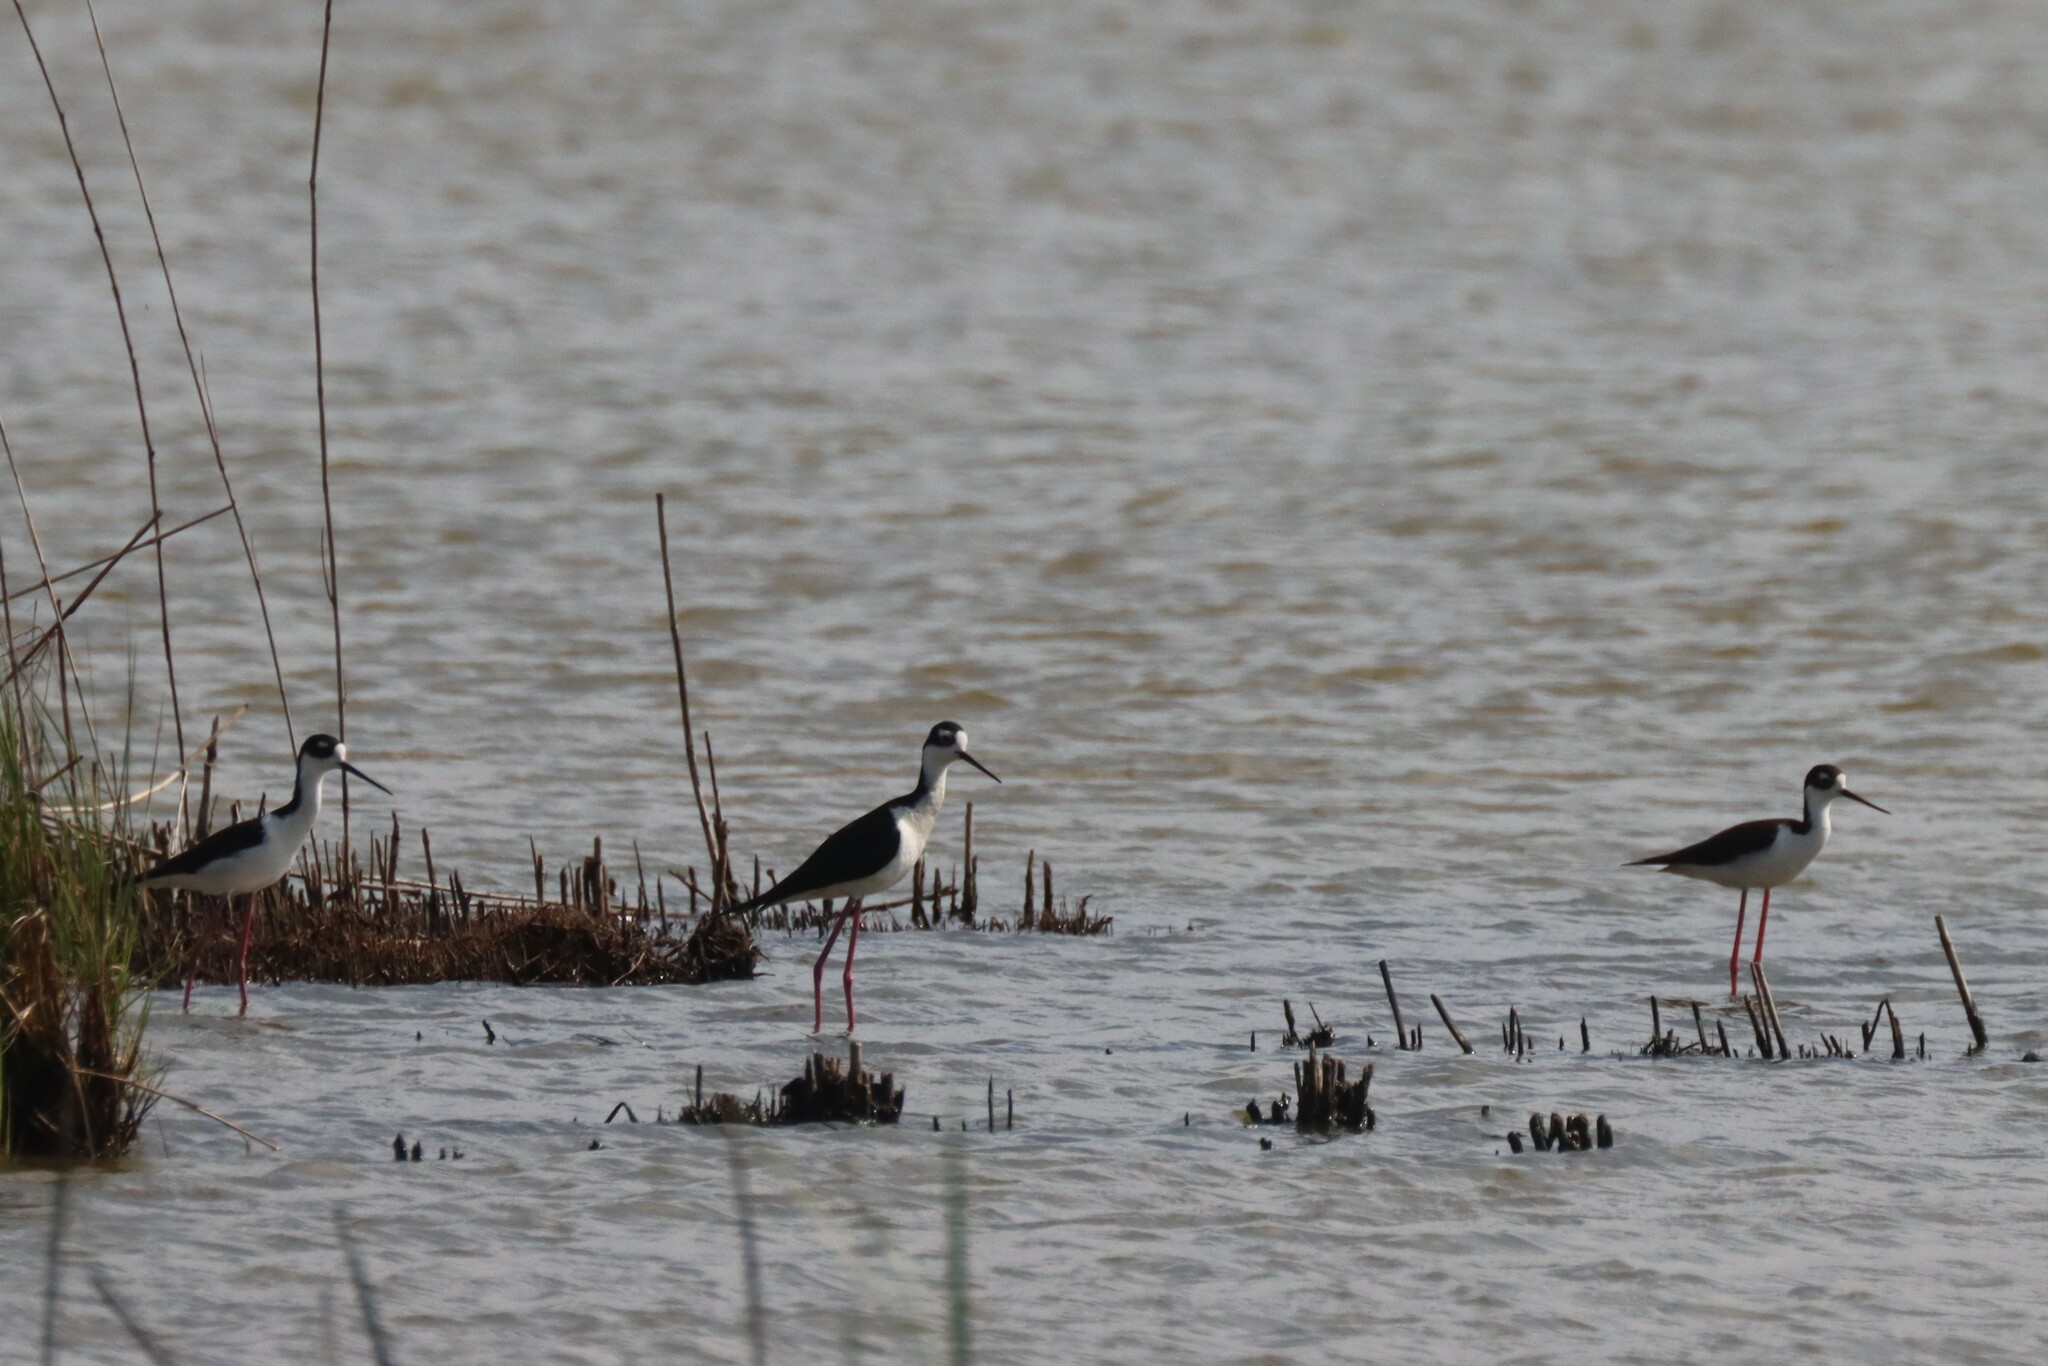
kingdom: Animalia
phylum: Chordata
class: Aves
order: Charadriiformes
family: Recurvirostridae
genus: Himantopus
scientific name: Himantopus mexicanus
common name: Black-necked stilt
